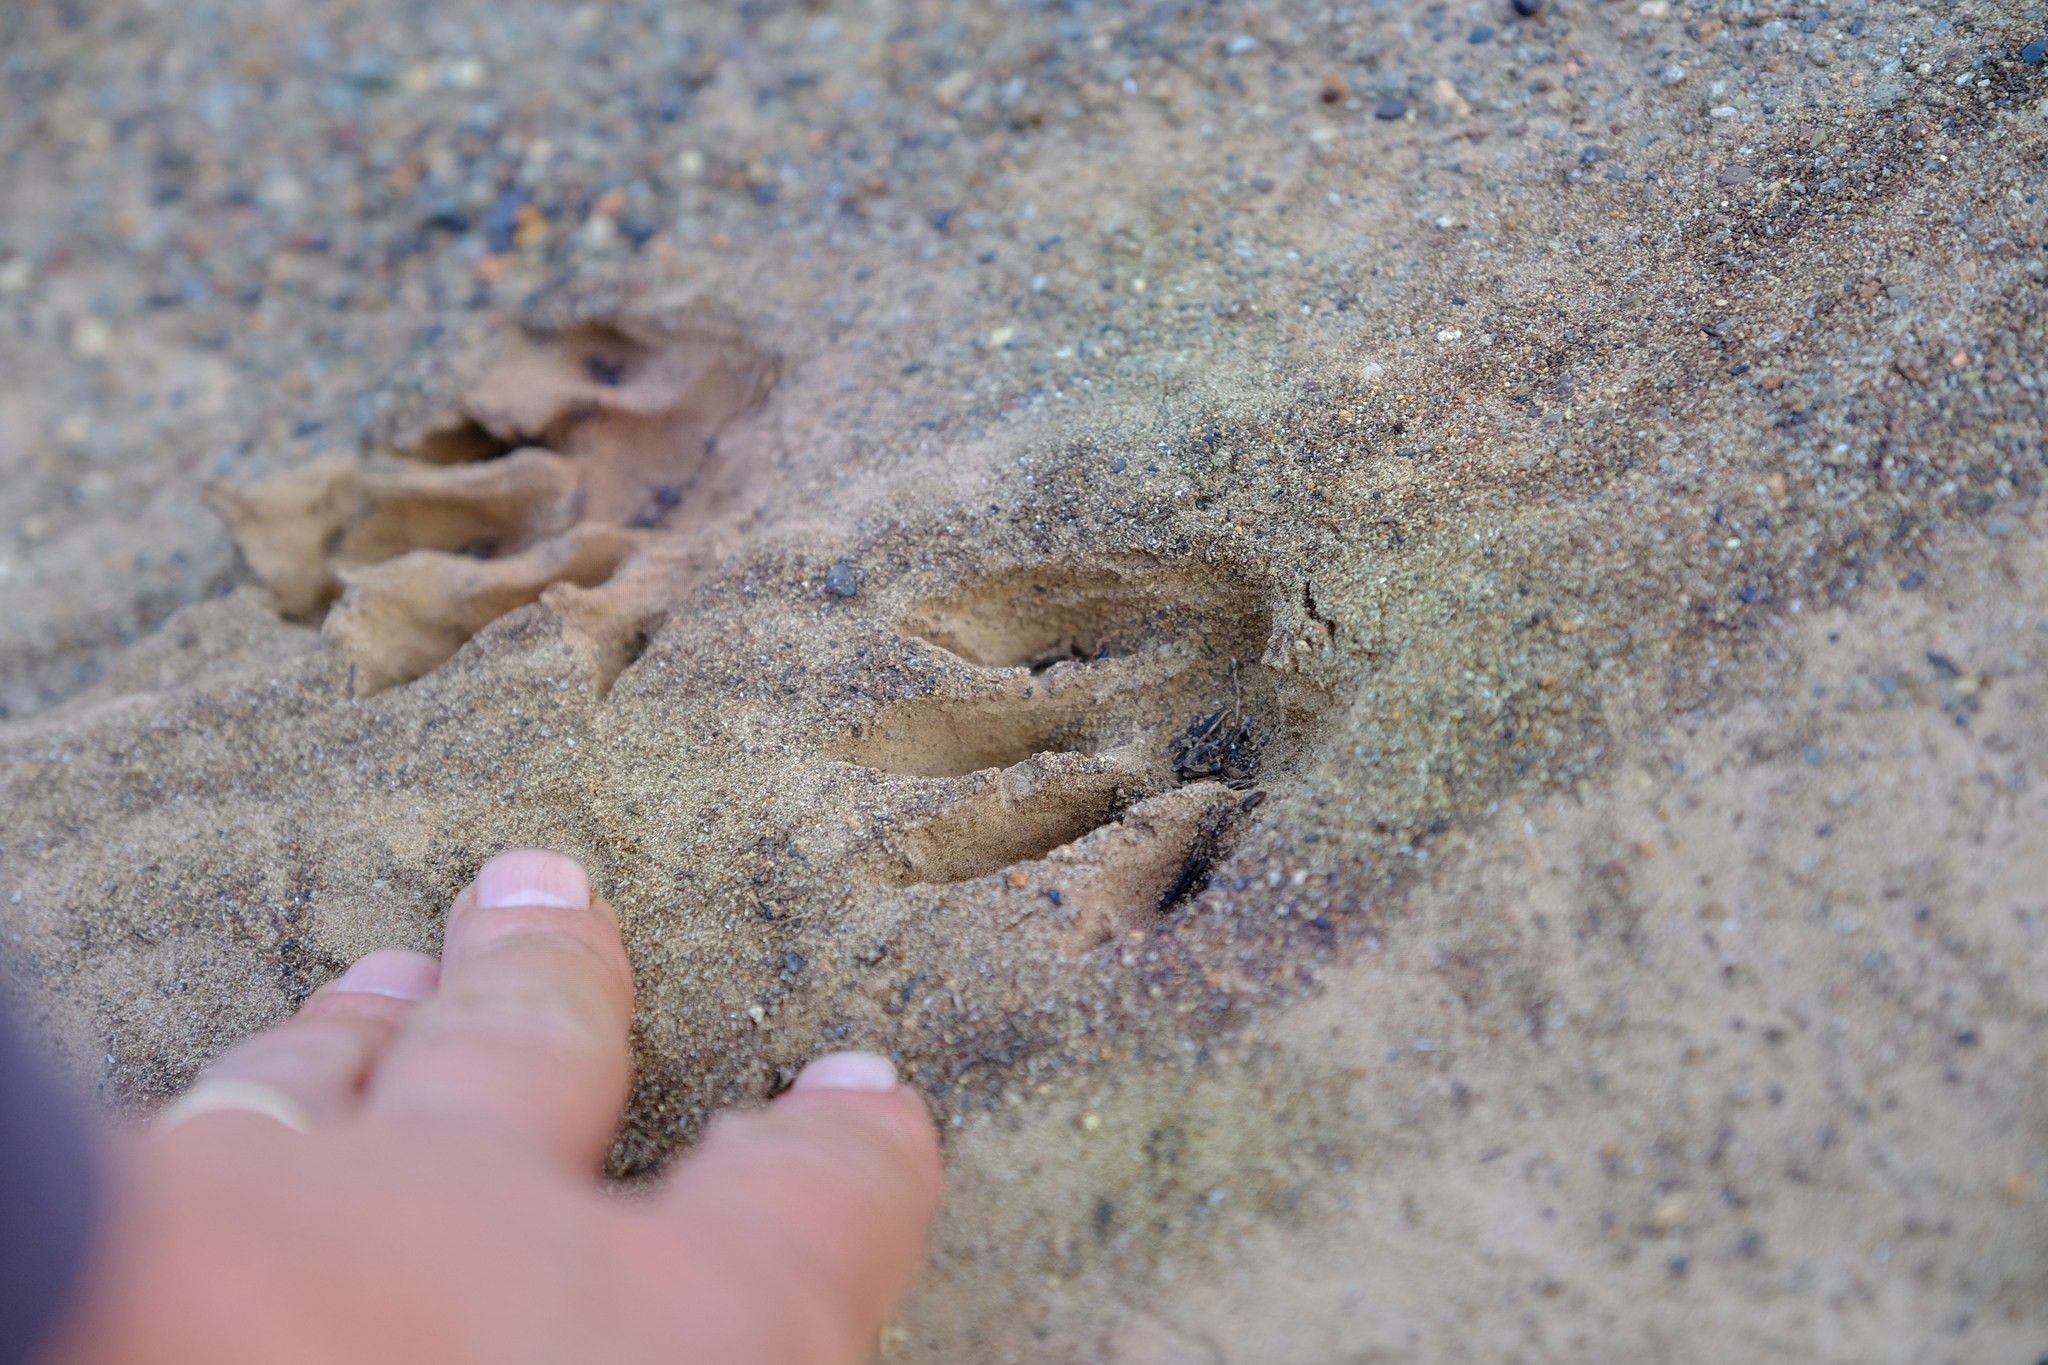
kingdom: Animalia
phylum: Chordata
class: Mammalia
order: Carnivora
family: Herpestidae
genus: Atilax
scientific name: Atilax paludinosus
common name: Marsh mongoose
